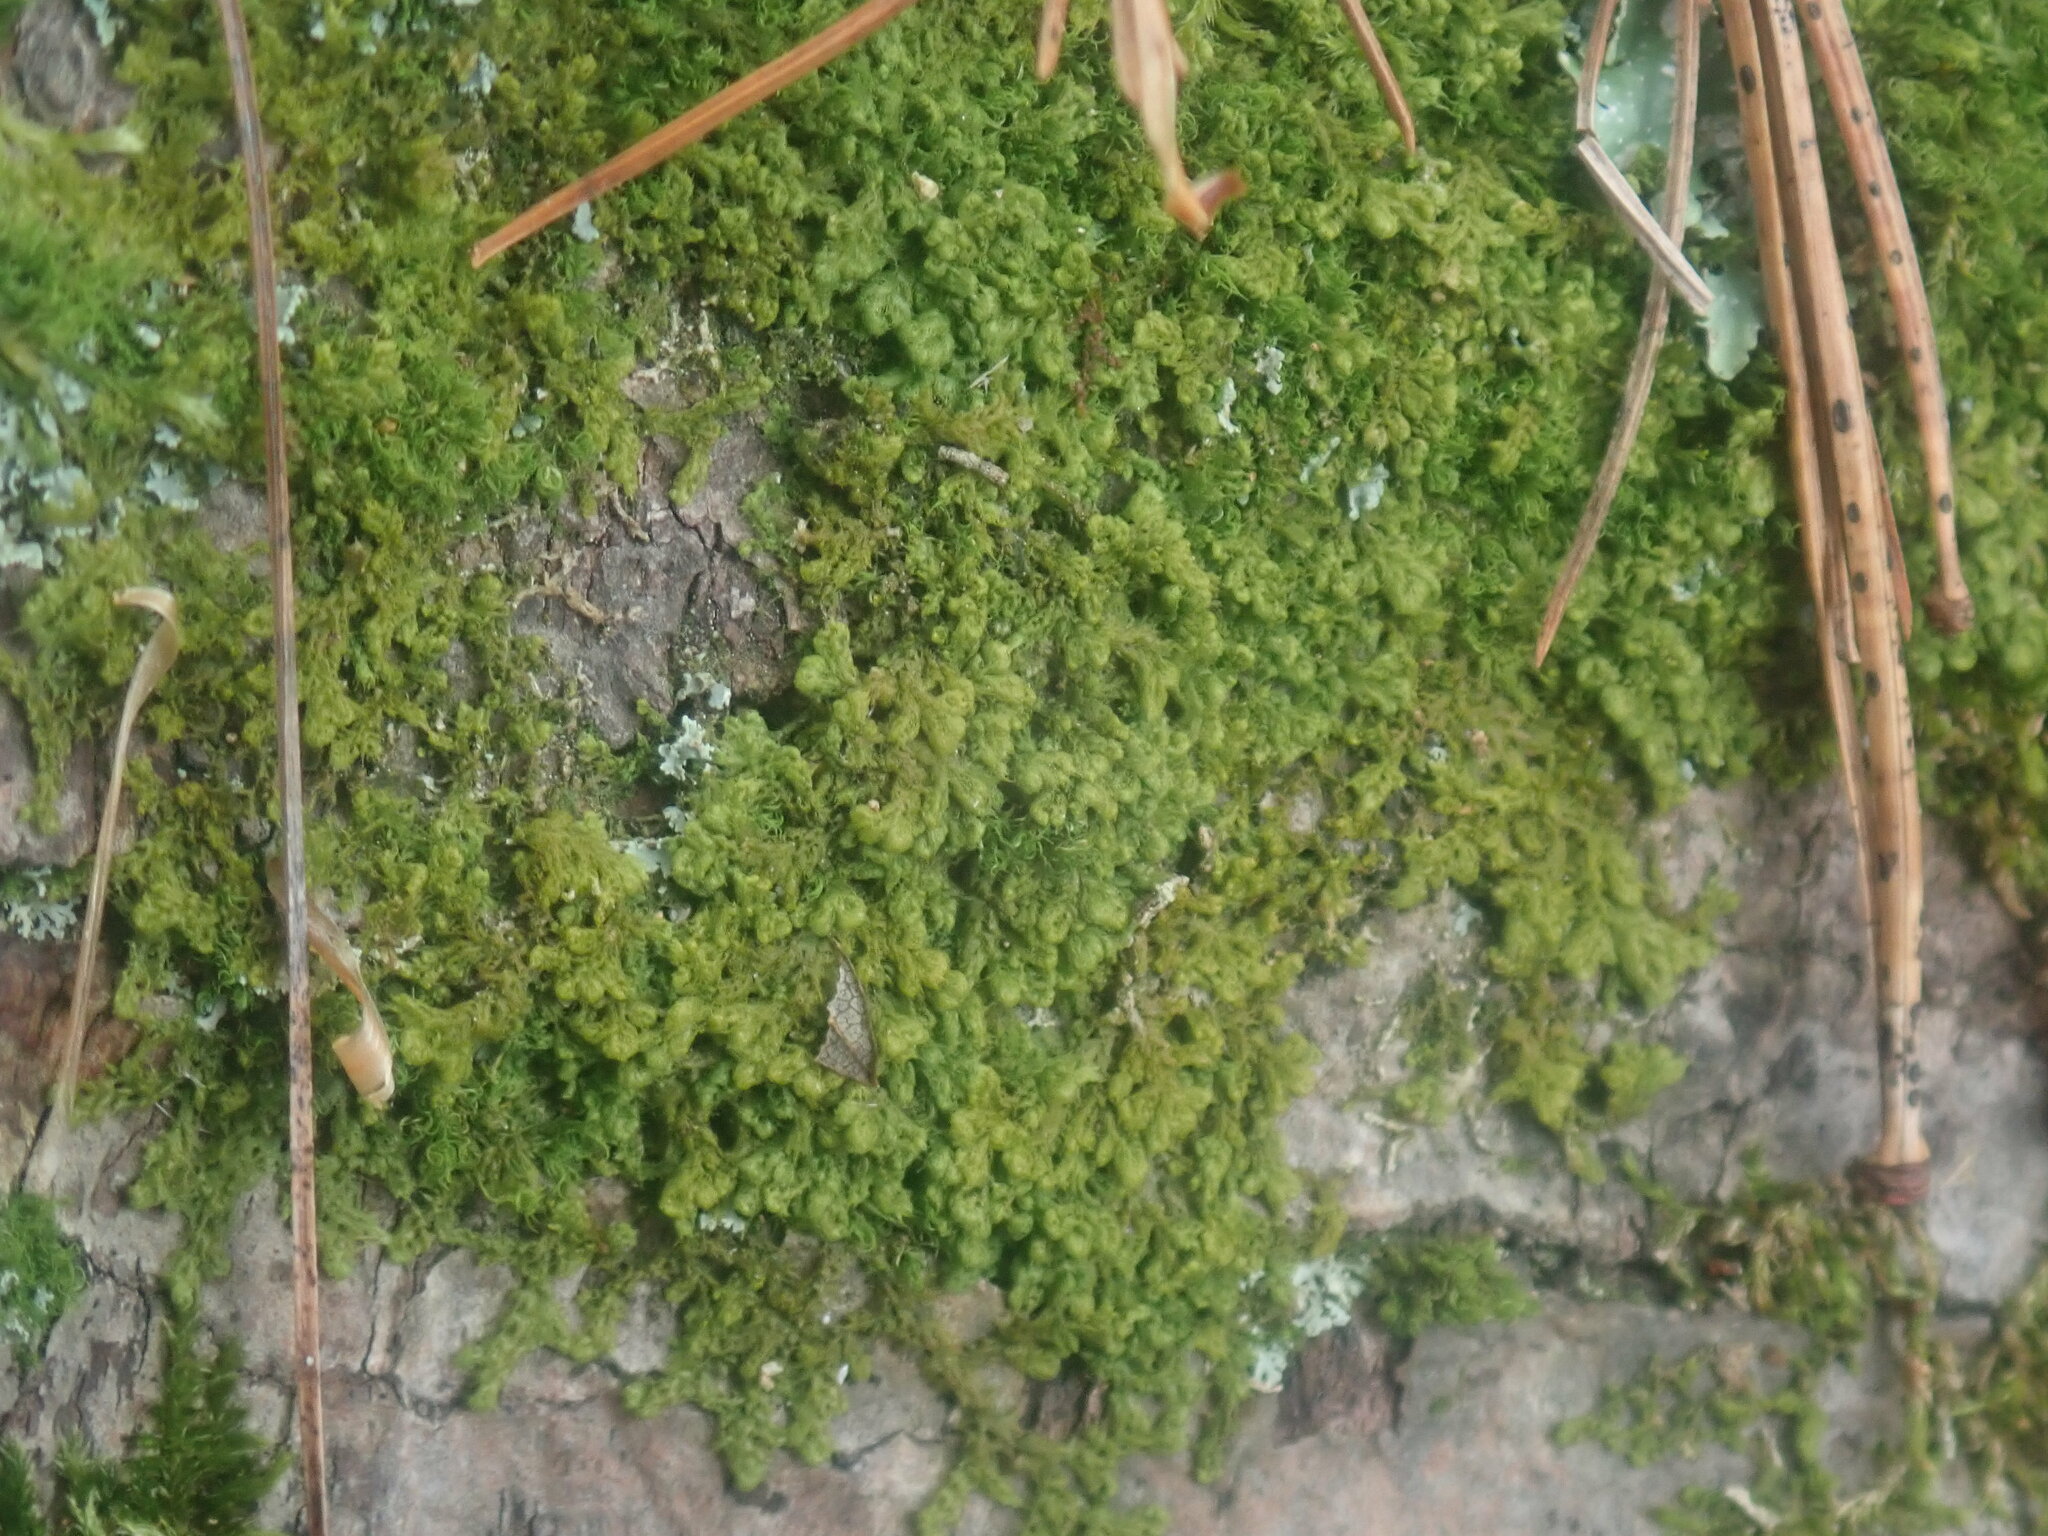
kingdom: Plantae
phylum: Marchantiophyta
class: Jungermanniopsida
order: Ptilidiales
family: Ptilidiaceae
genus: Ptilidium
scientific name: Ptilidium pulcherrimum
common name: Tree fringewort
